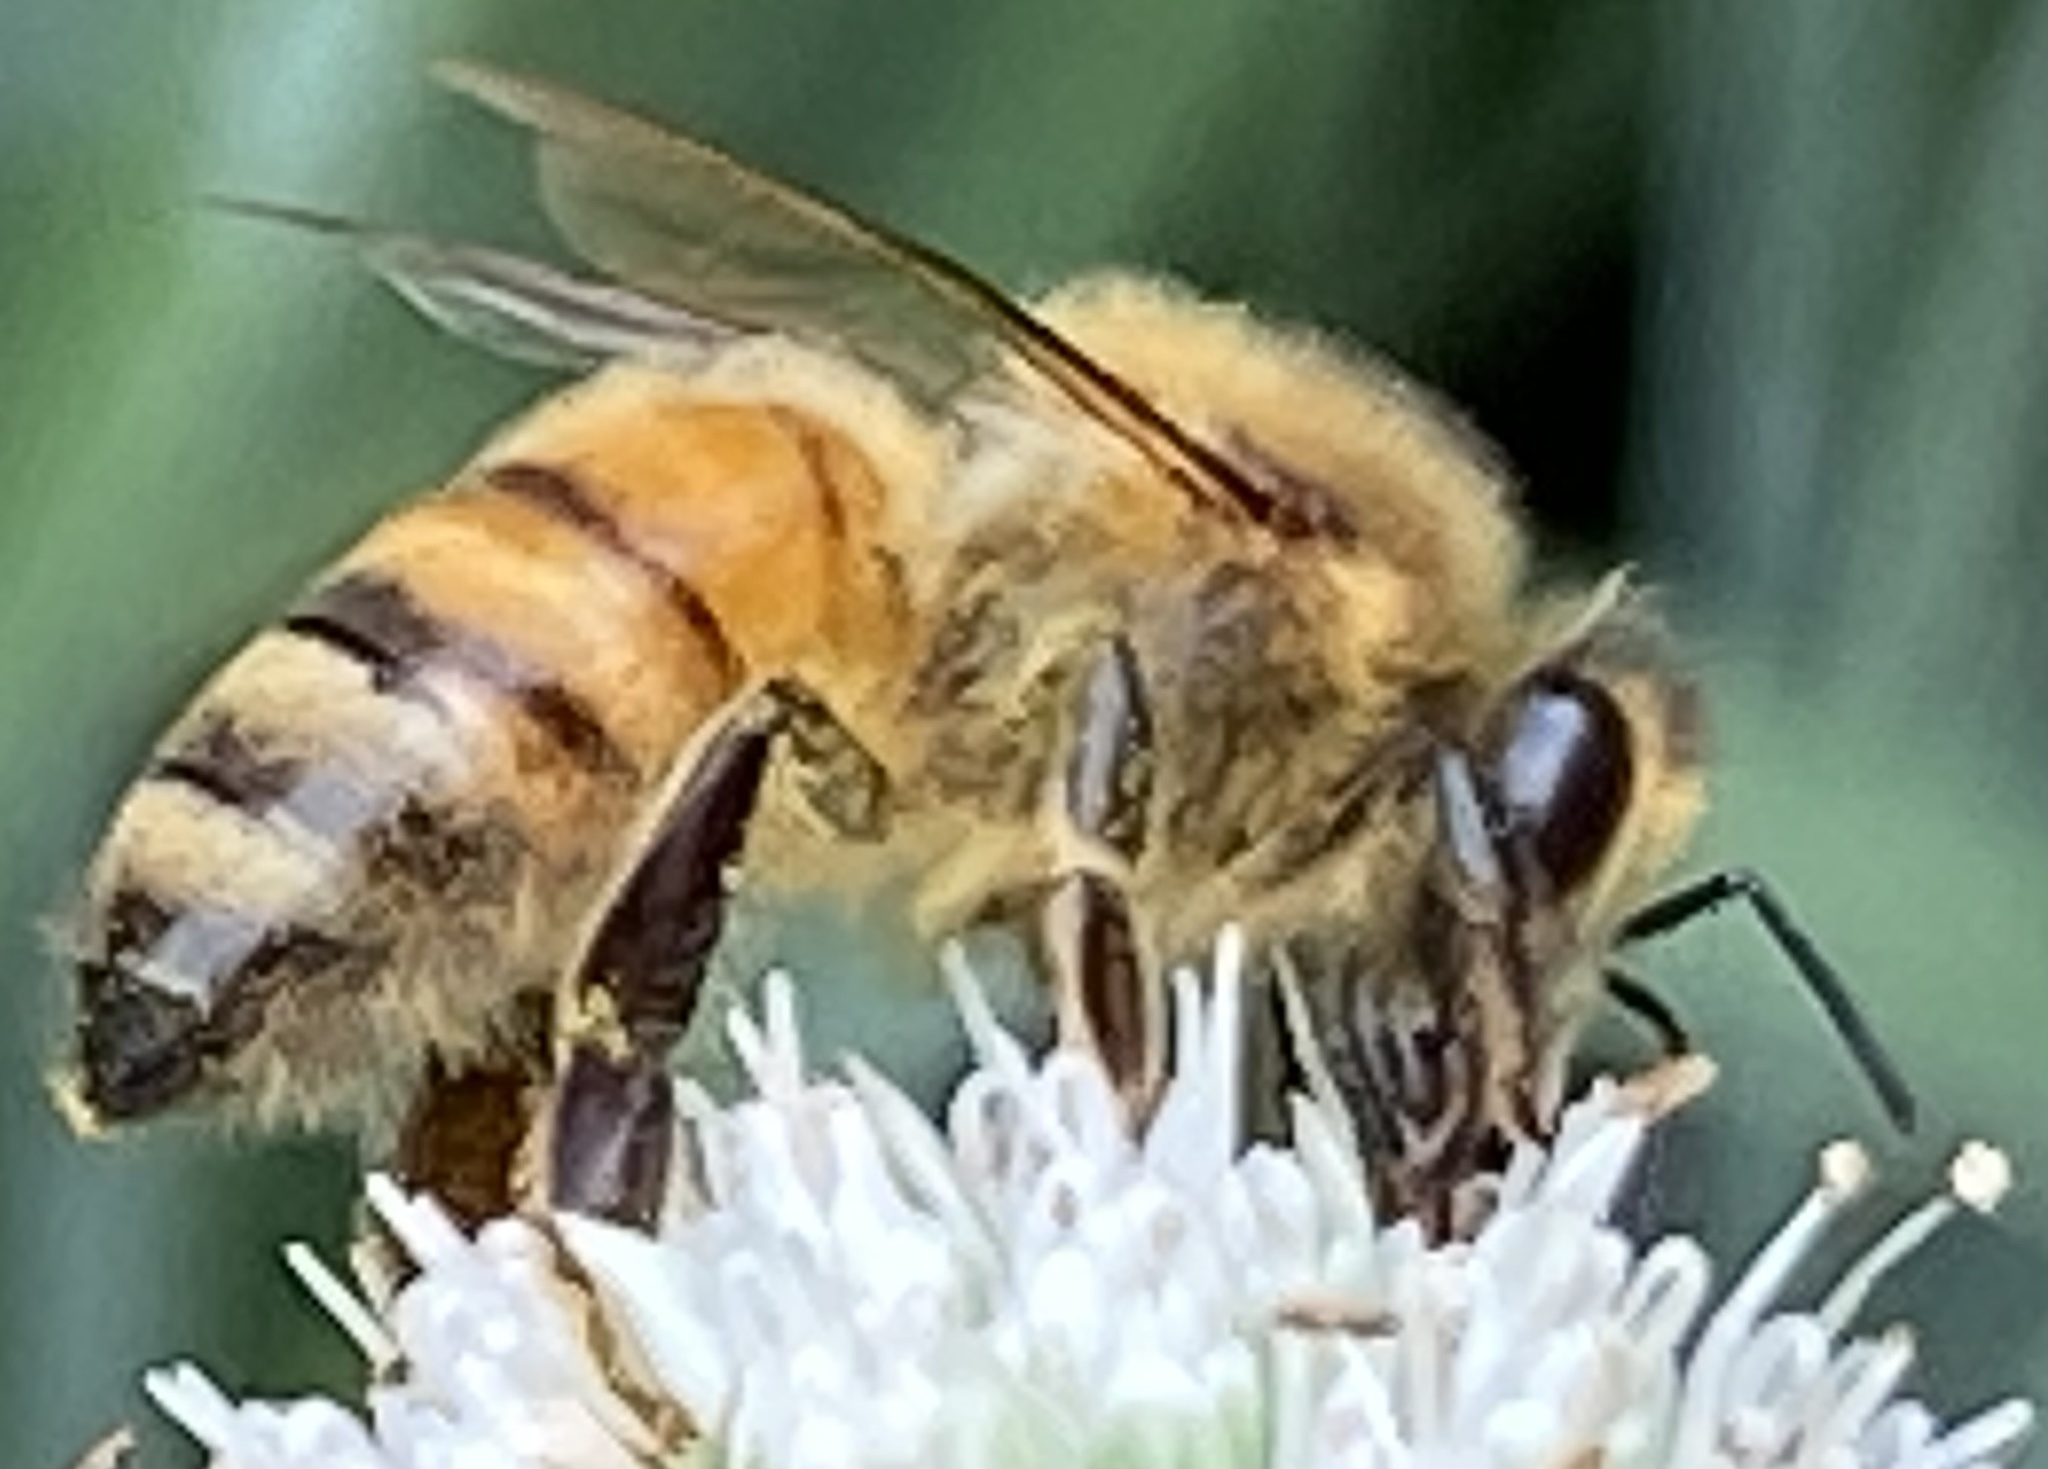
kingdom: Animalia
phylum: Arthropoda
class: Insecta
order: Hymenoptera
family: Apidae
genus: Apis
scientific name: Apis mellifera
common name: Honey bee
